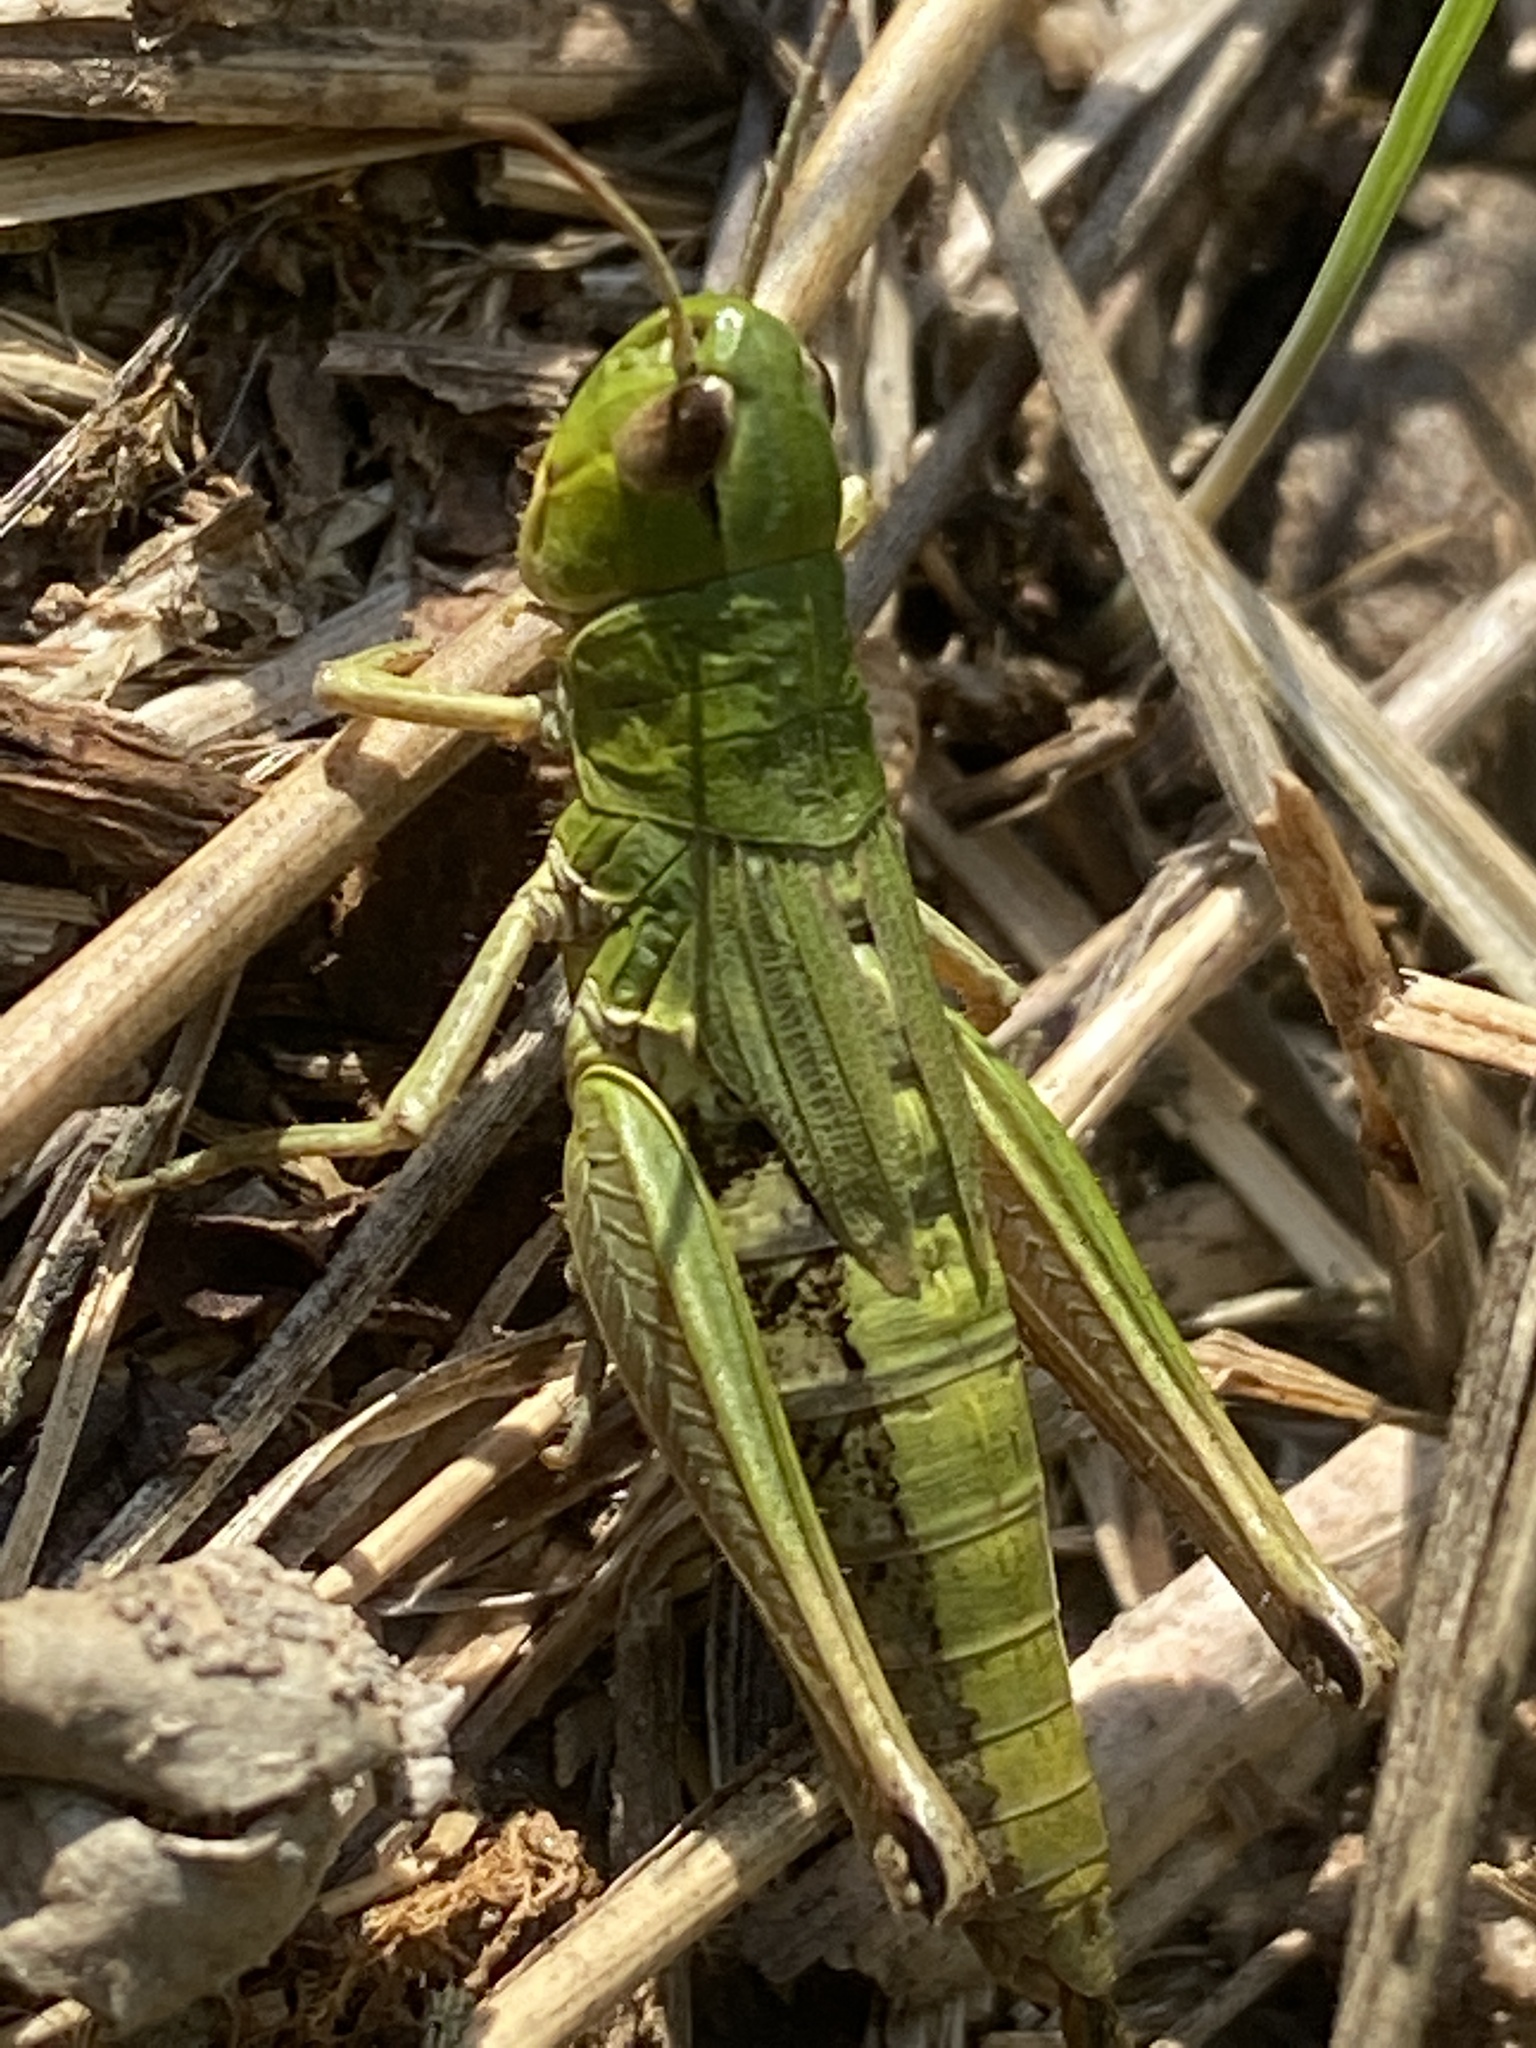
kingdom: Animalia
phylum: Arthropoda
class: Insecta
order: Orthoptera
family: Acrididae
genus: Pseudochorthippus
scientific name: Pseudochorthippus parallelus
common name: Meadow grasshopper
